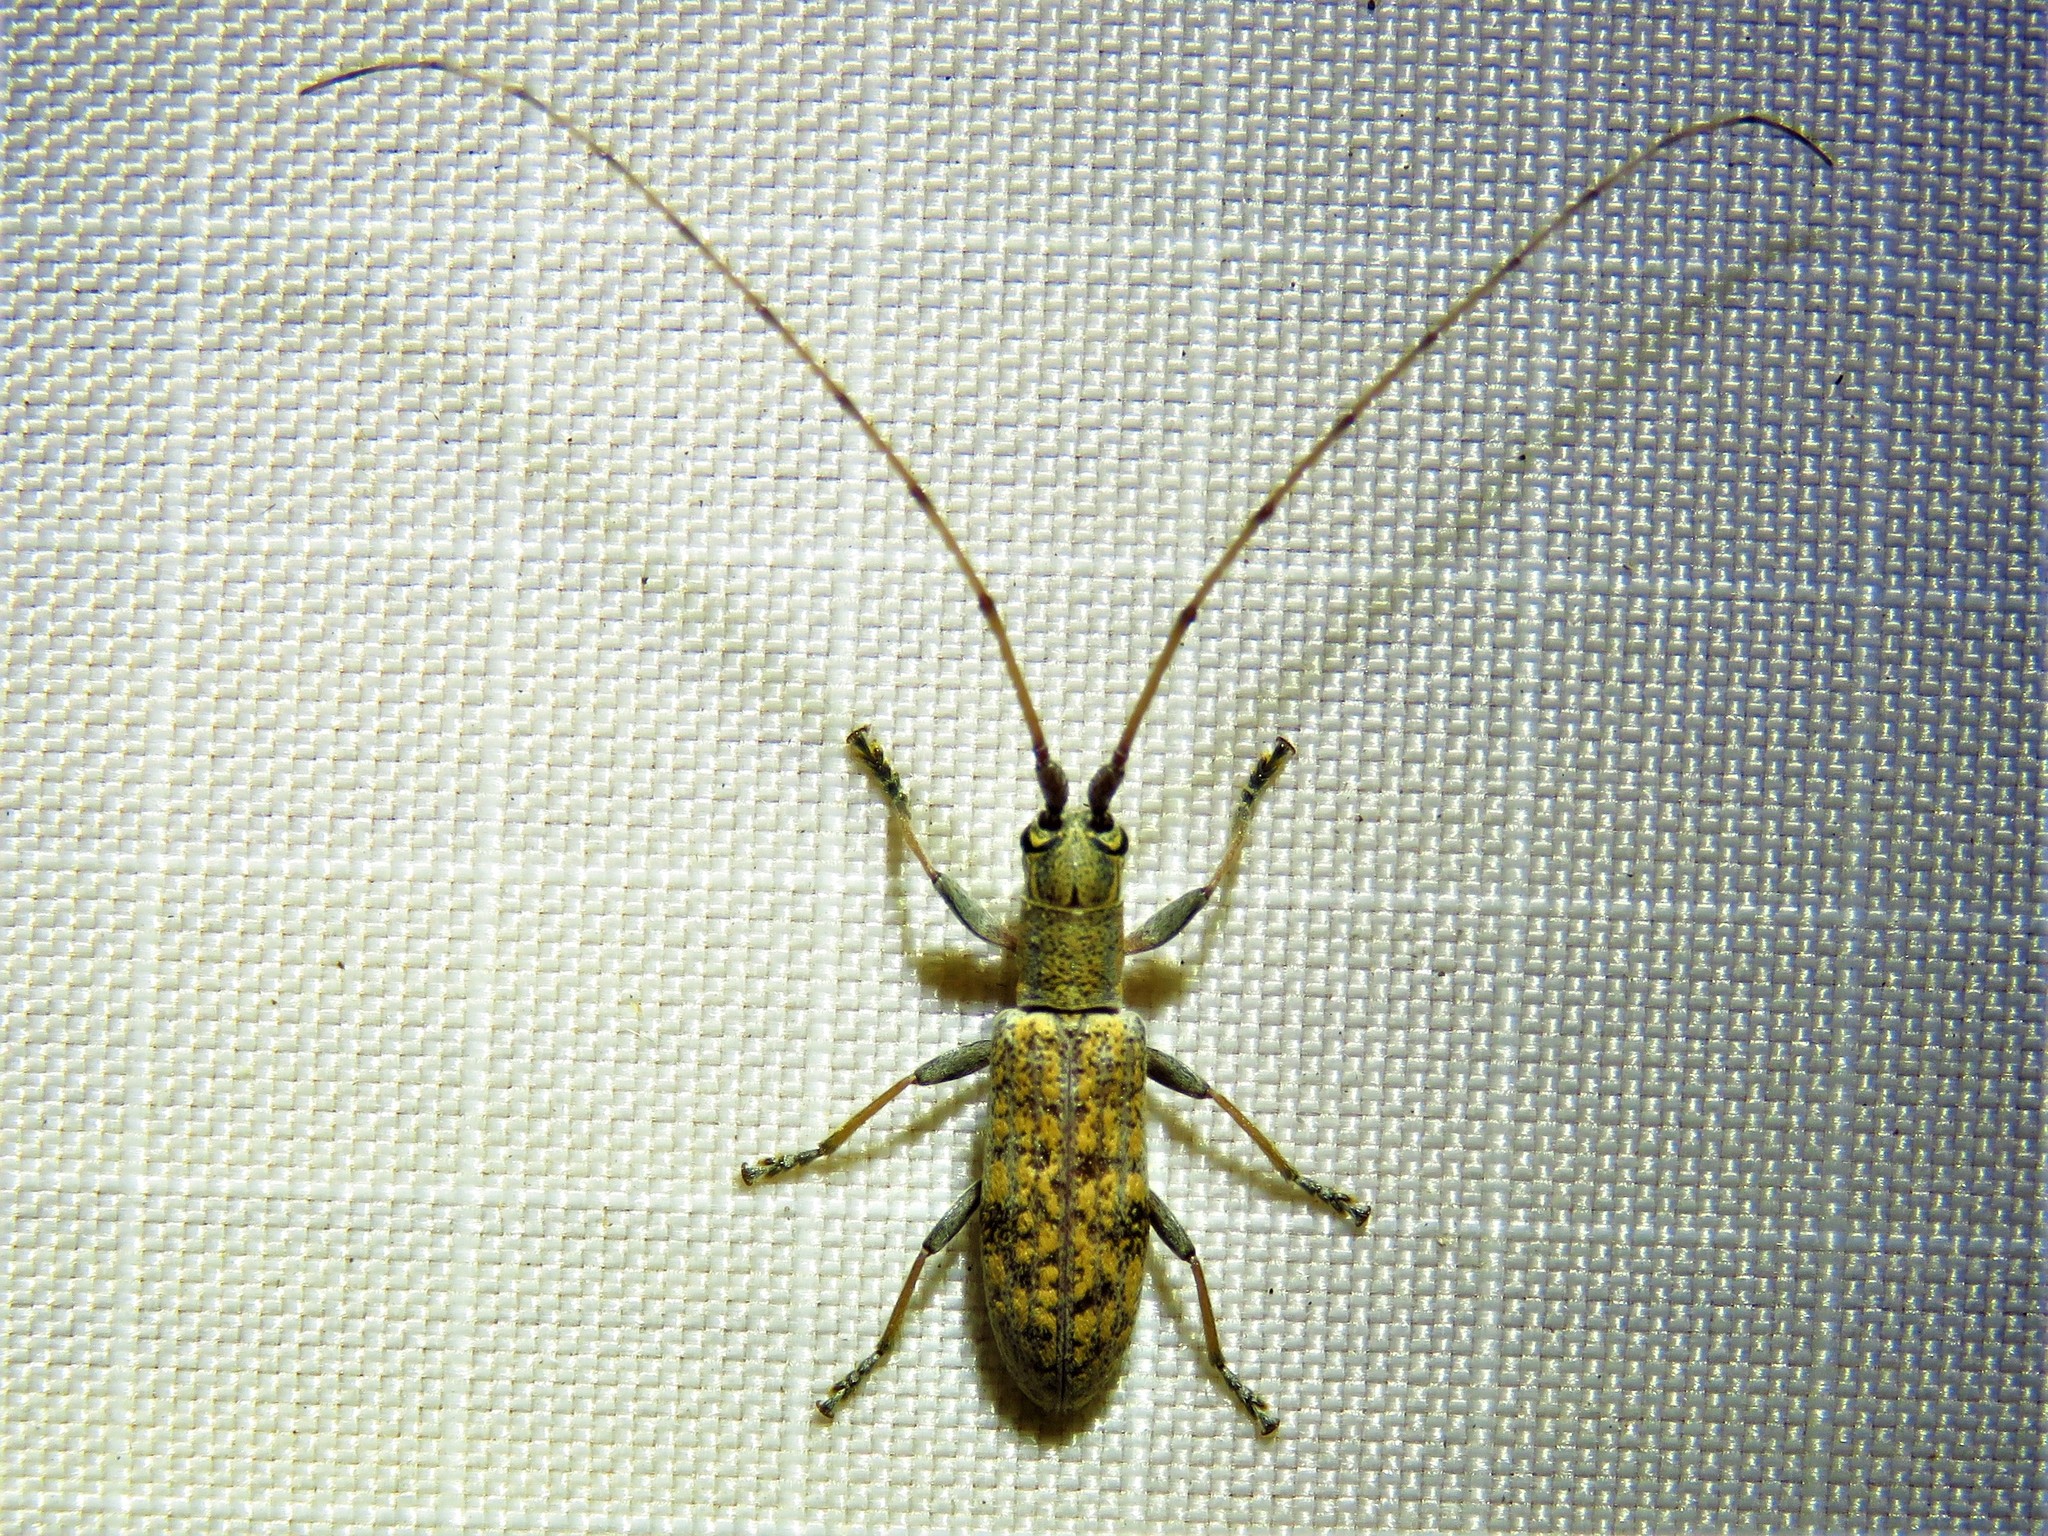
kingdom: Animalia
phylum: Arthropoda
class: Insecta
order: Coleoptera
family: Cerambycidae
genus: Dorcaschema
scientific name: Dorcaschema alternatum
